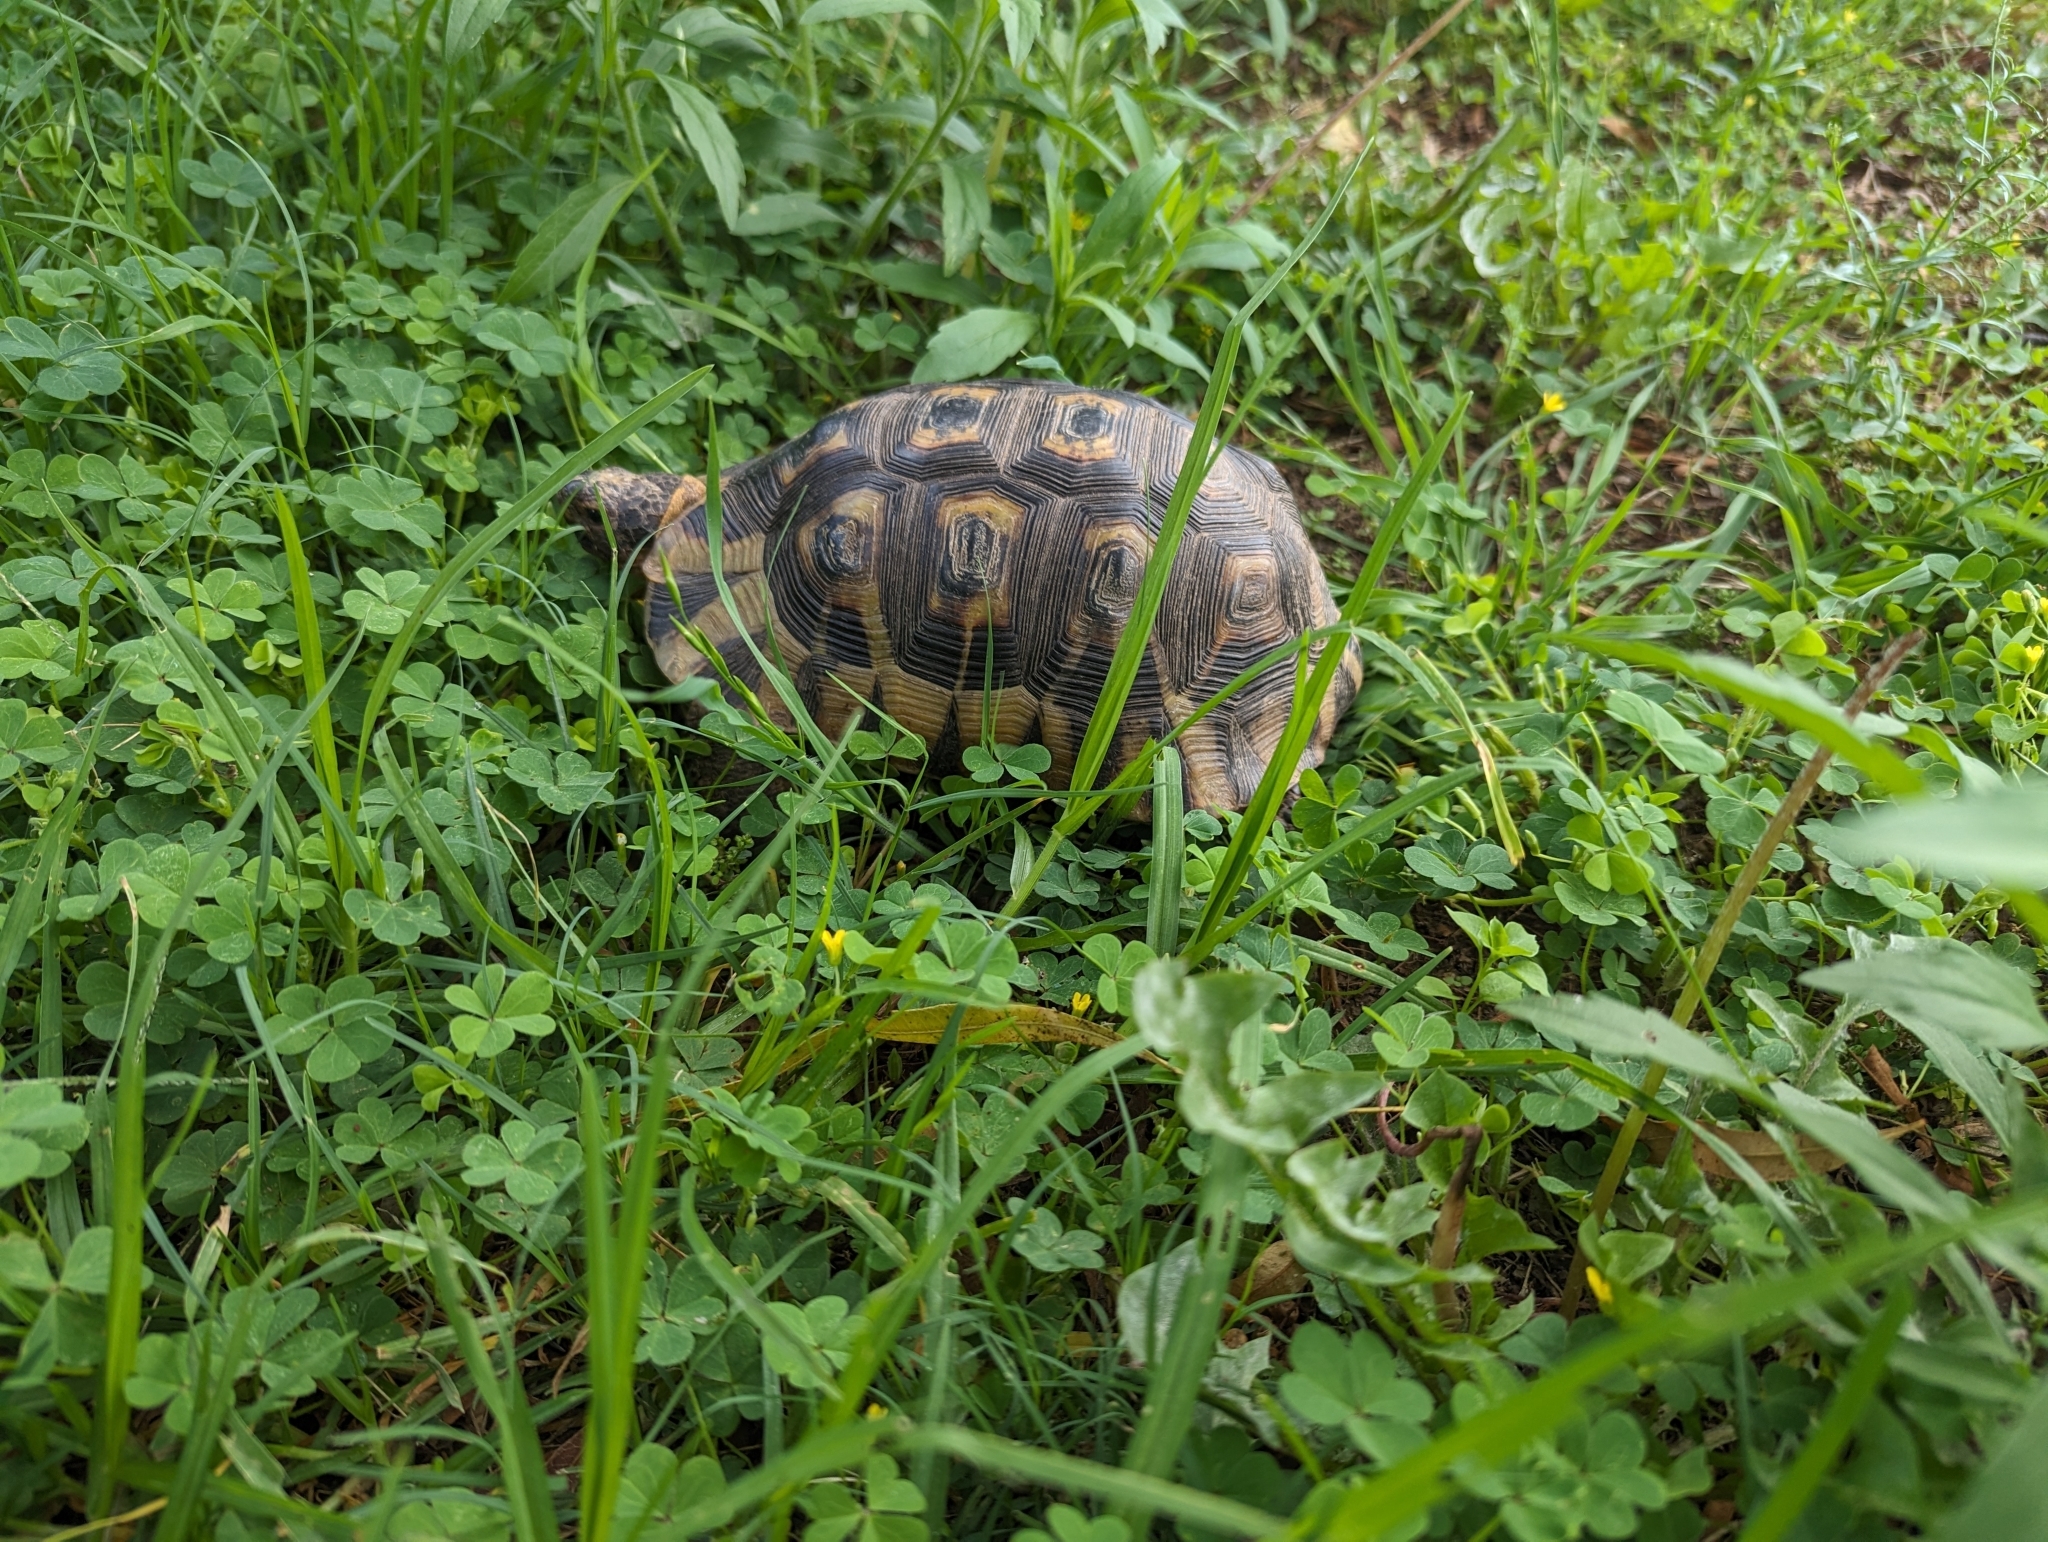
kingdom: Animalia
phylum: Chordata
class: Testudines
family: Testudinidae
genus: Chersina
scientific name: Chersina angulata
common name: South african bowsprit tortoise
